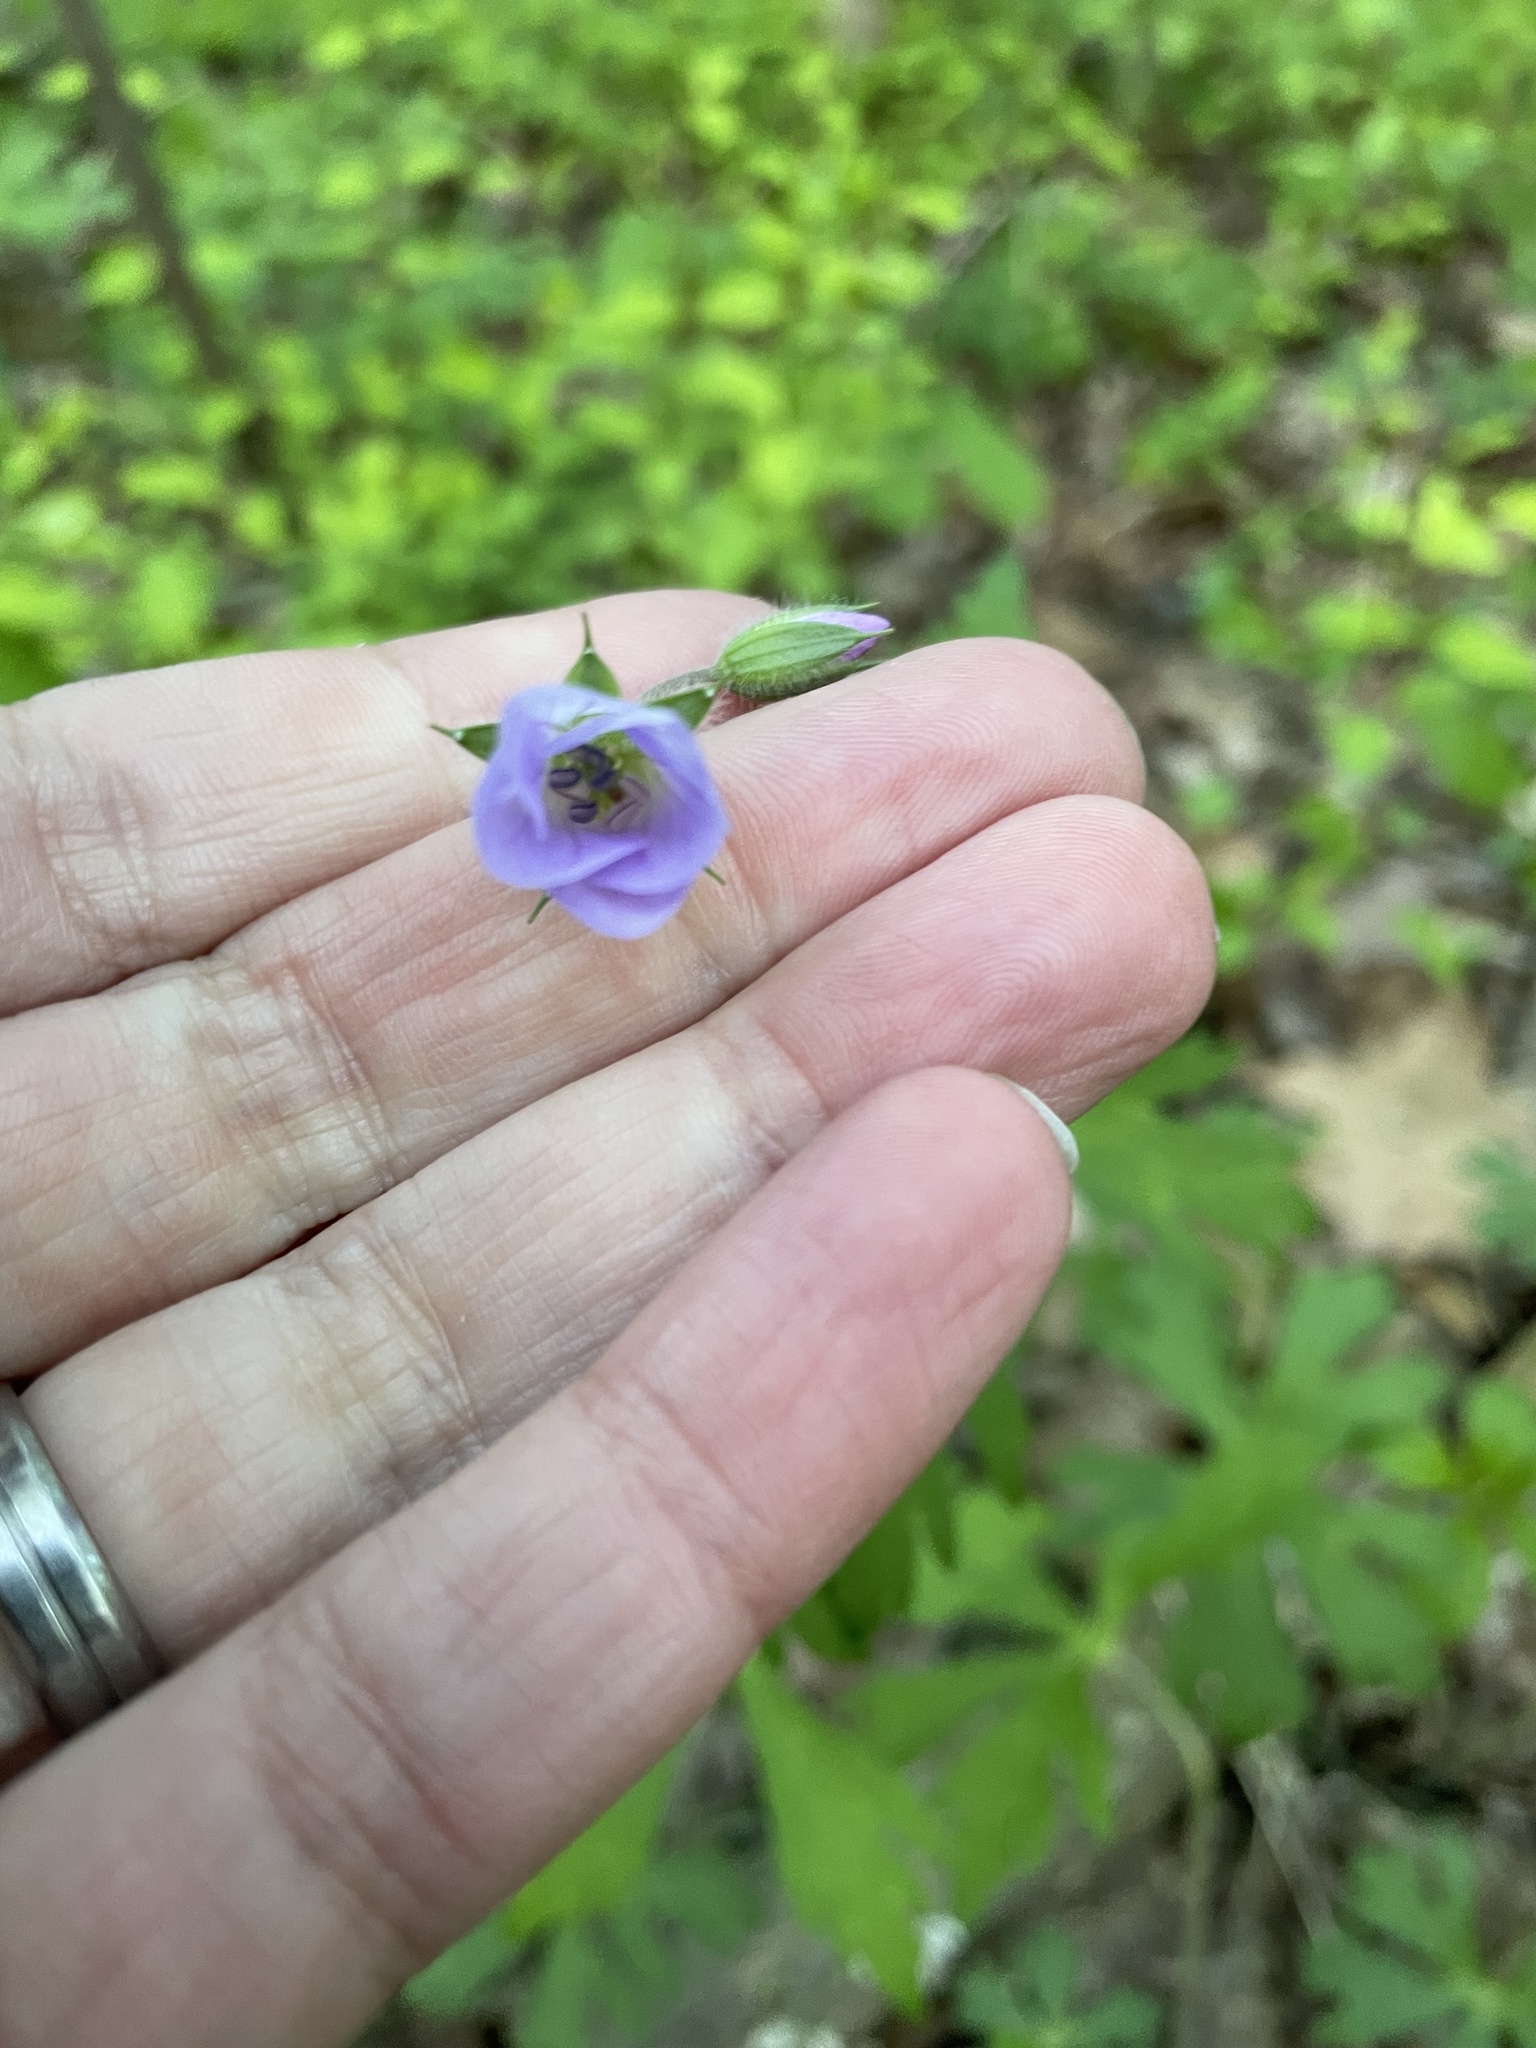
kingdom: Plantae
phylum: Tracheophyta
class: Magnoliopsida
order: Geraniales
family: Geraniaceae
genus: Geranium
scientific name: Geranium maculatum
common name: Spotted geranium
